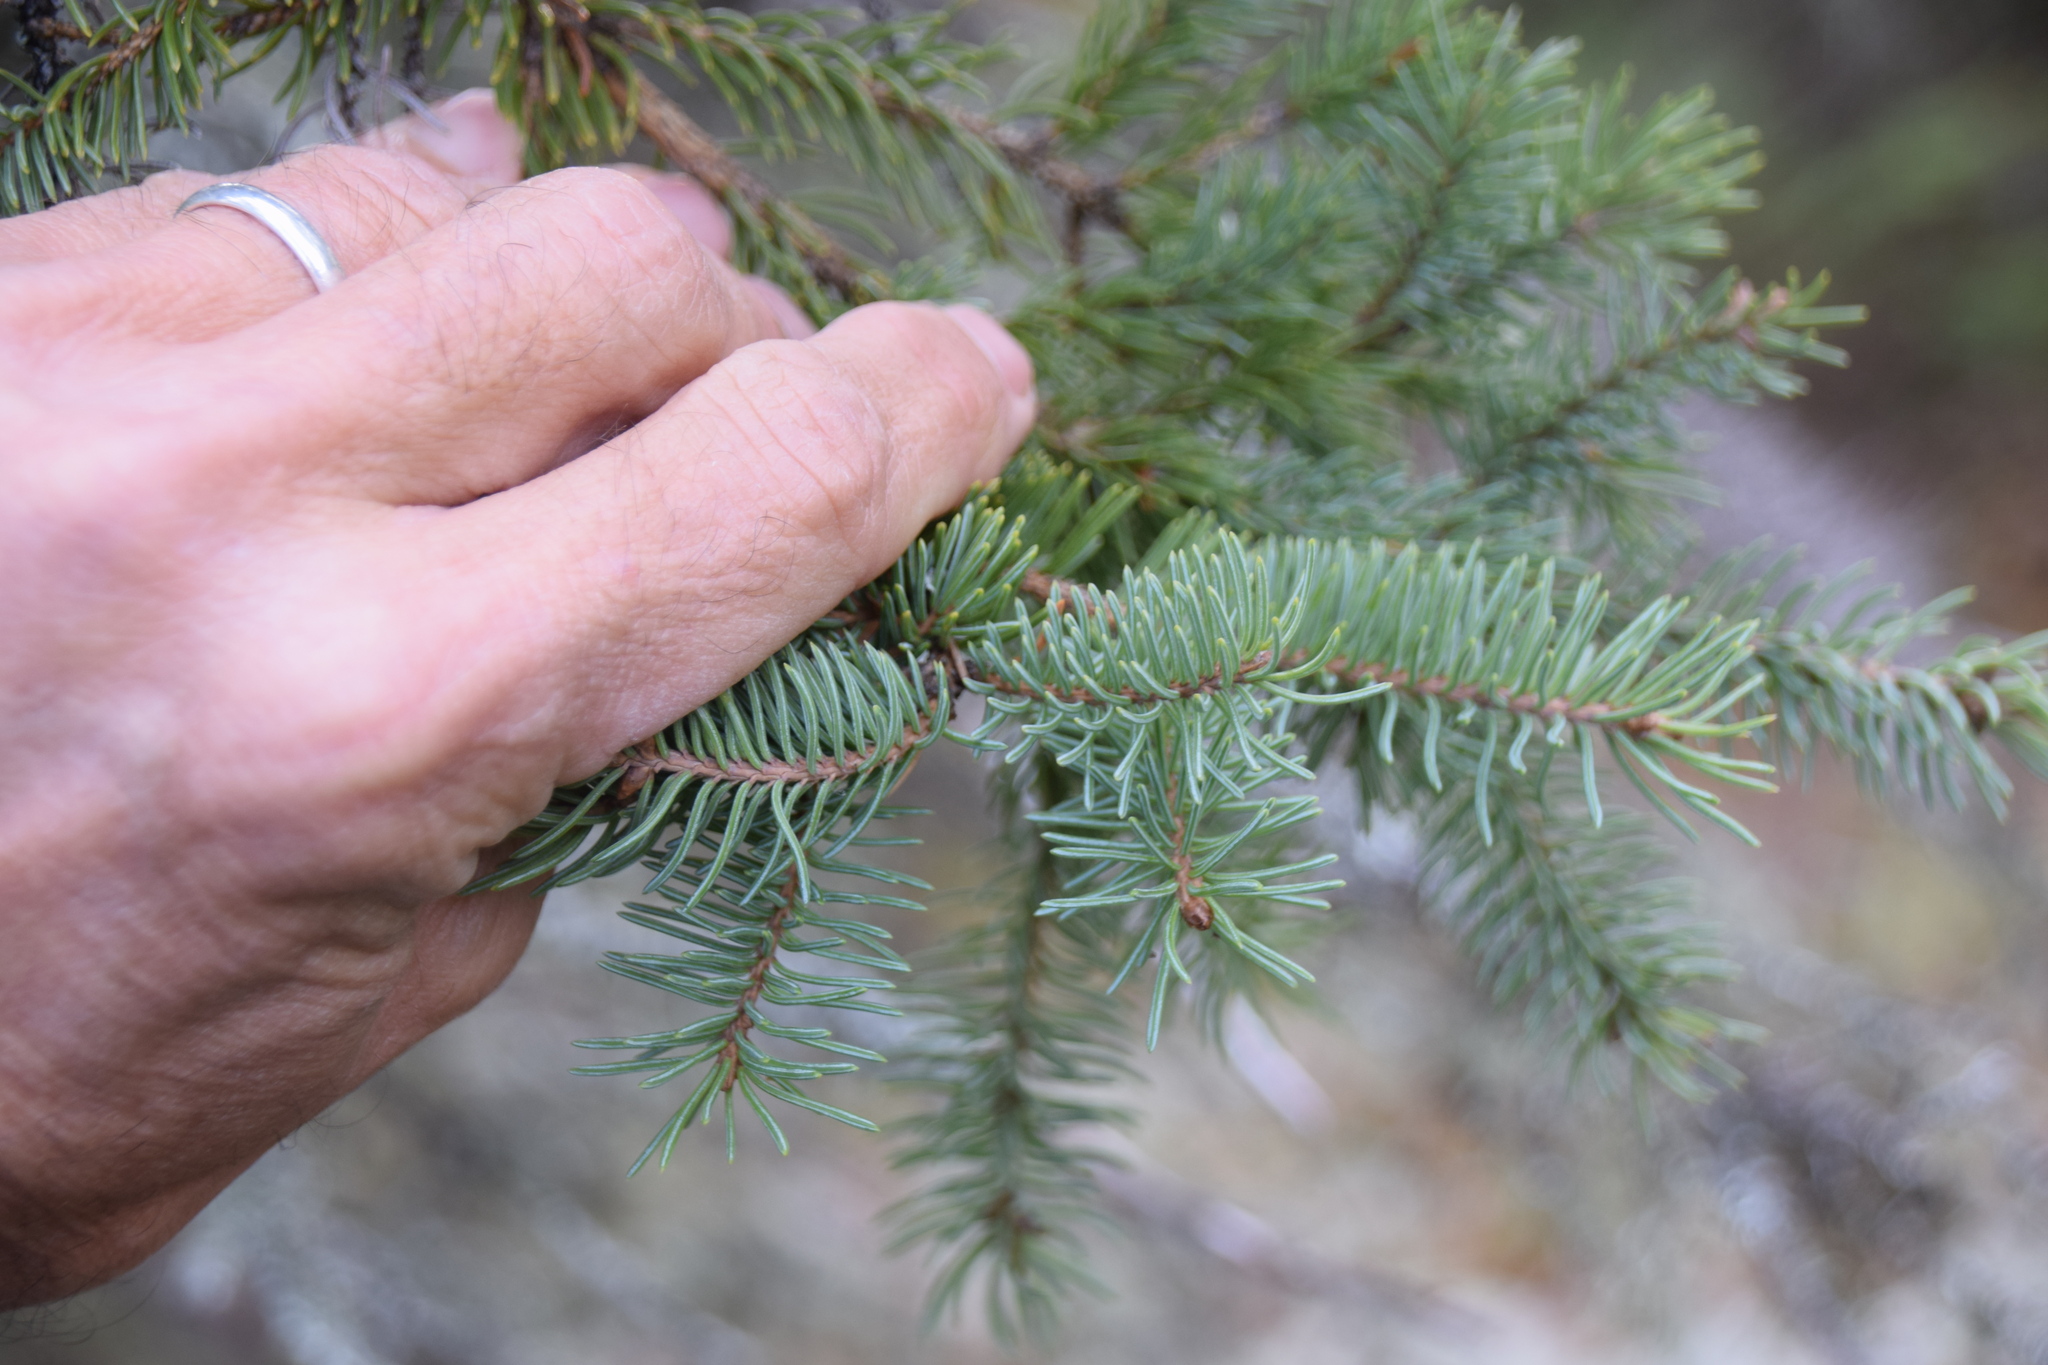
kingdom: Plantae
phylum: Tracheophyta
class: Pinopsida
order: Pinales
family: Pinaceae
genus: Picea
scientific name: Picea glauca
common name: White spruce
